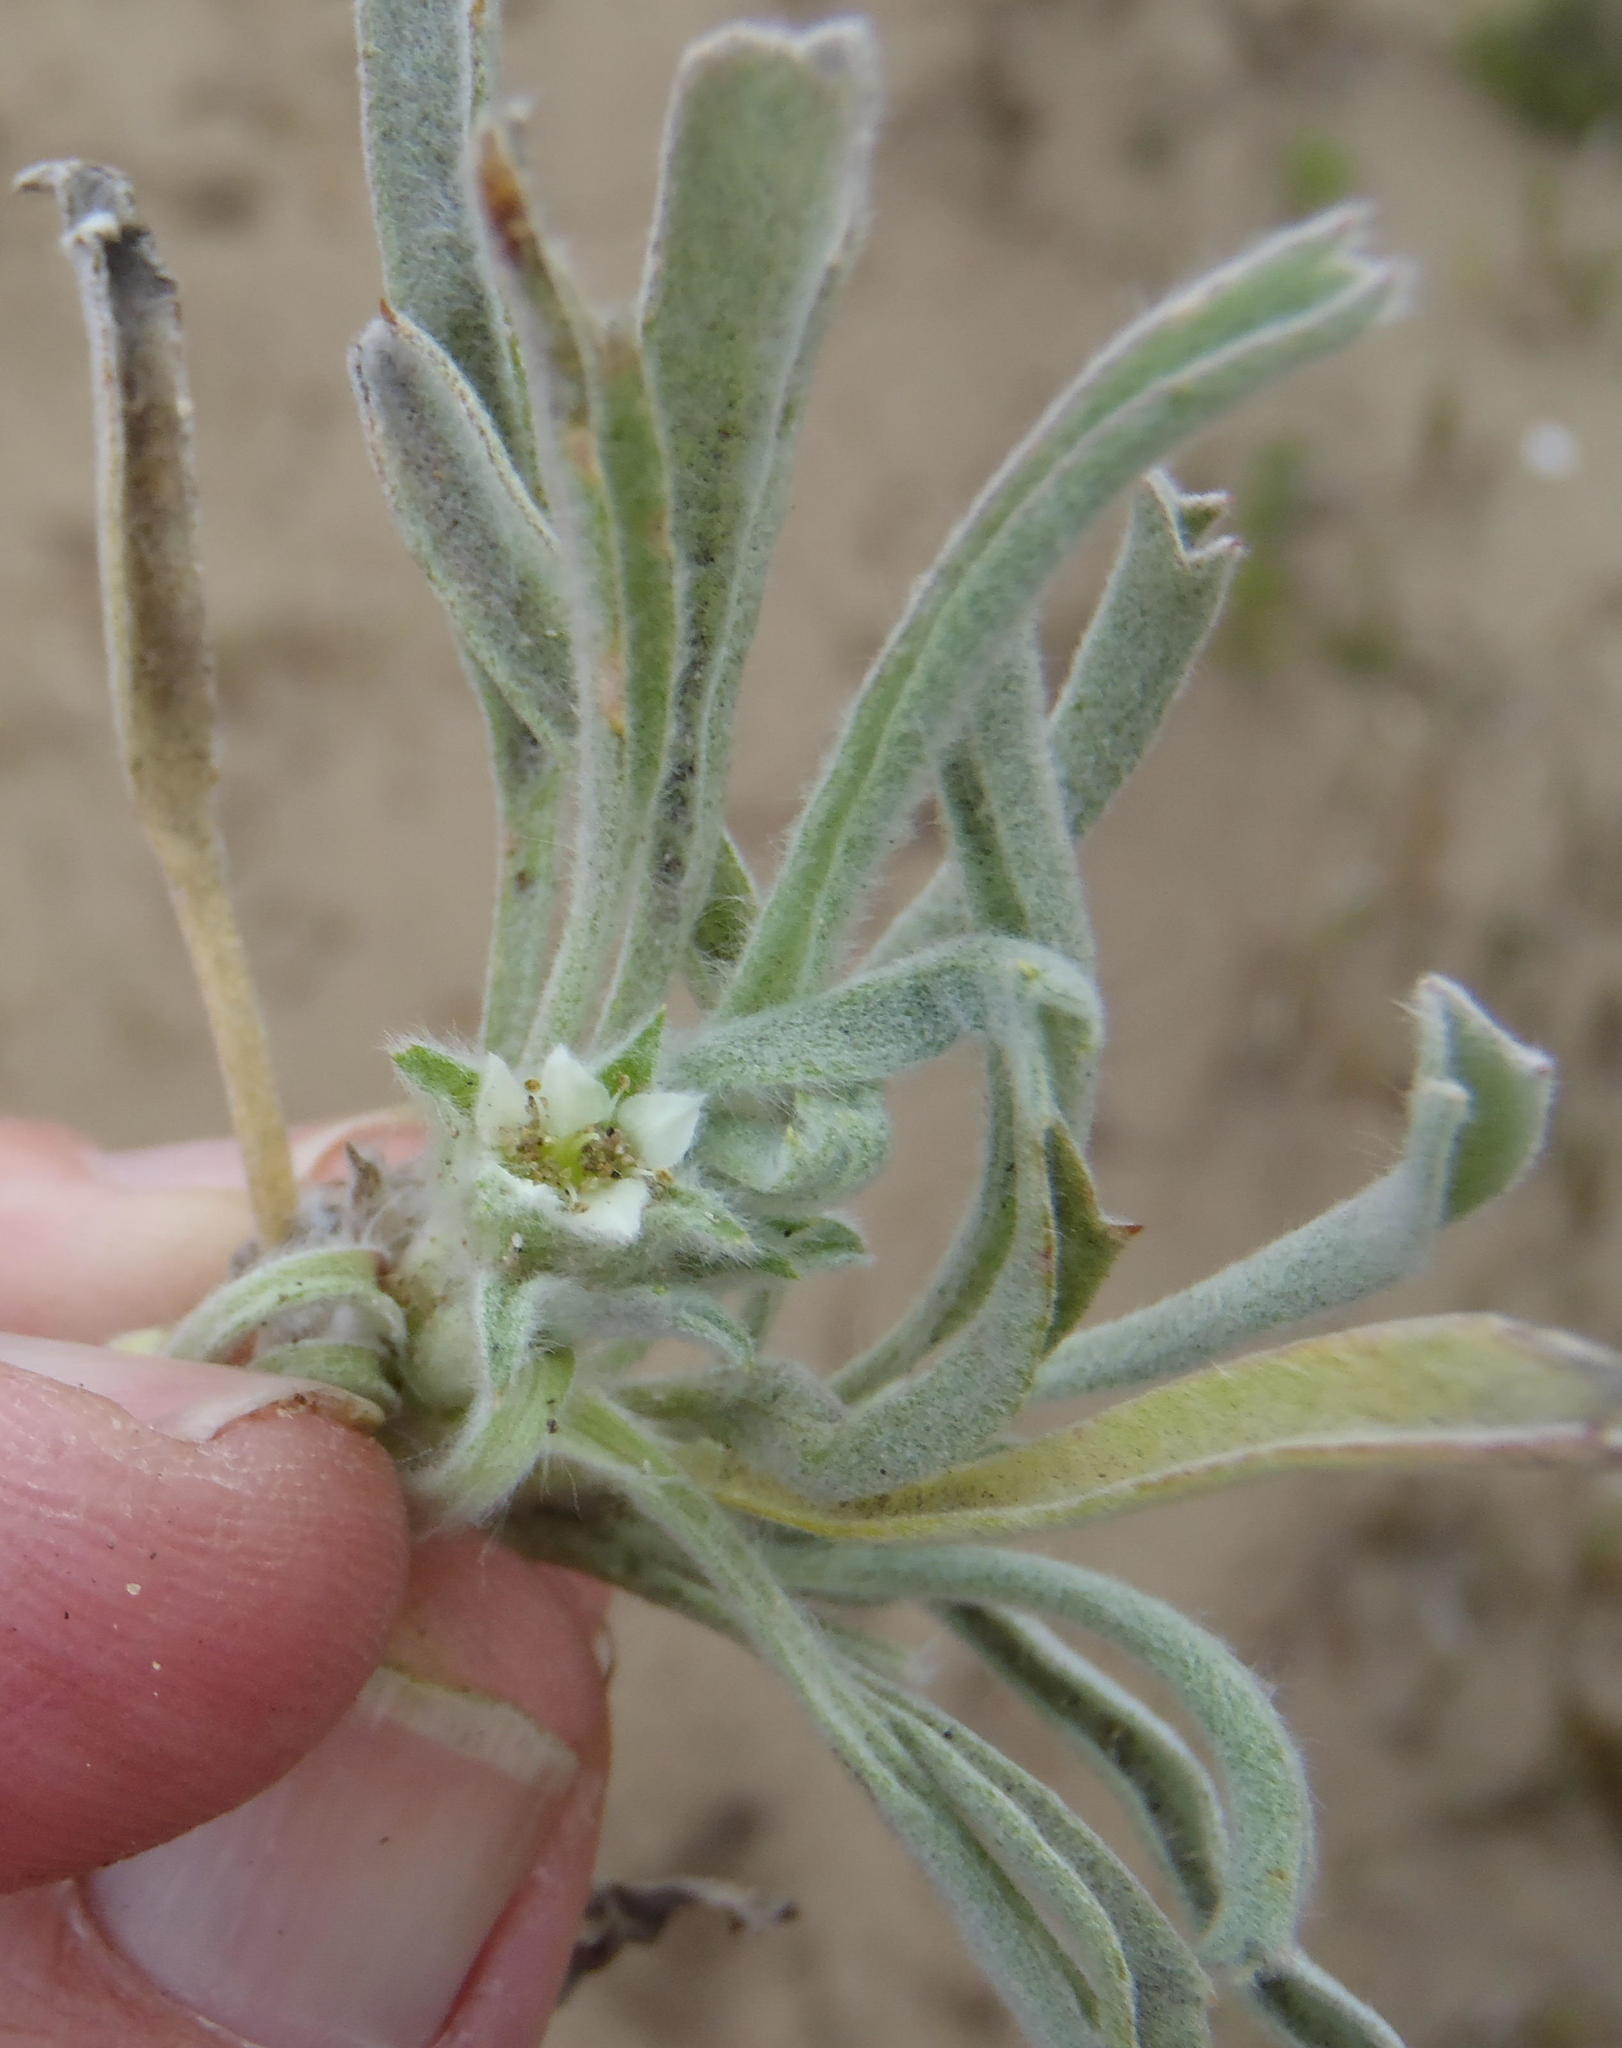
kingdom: Plantae
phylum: Tracheophyta
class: Magnoliopsida
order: Apiales
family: Apiaceae
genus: Centella
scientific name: Centella tridentata
